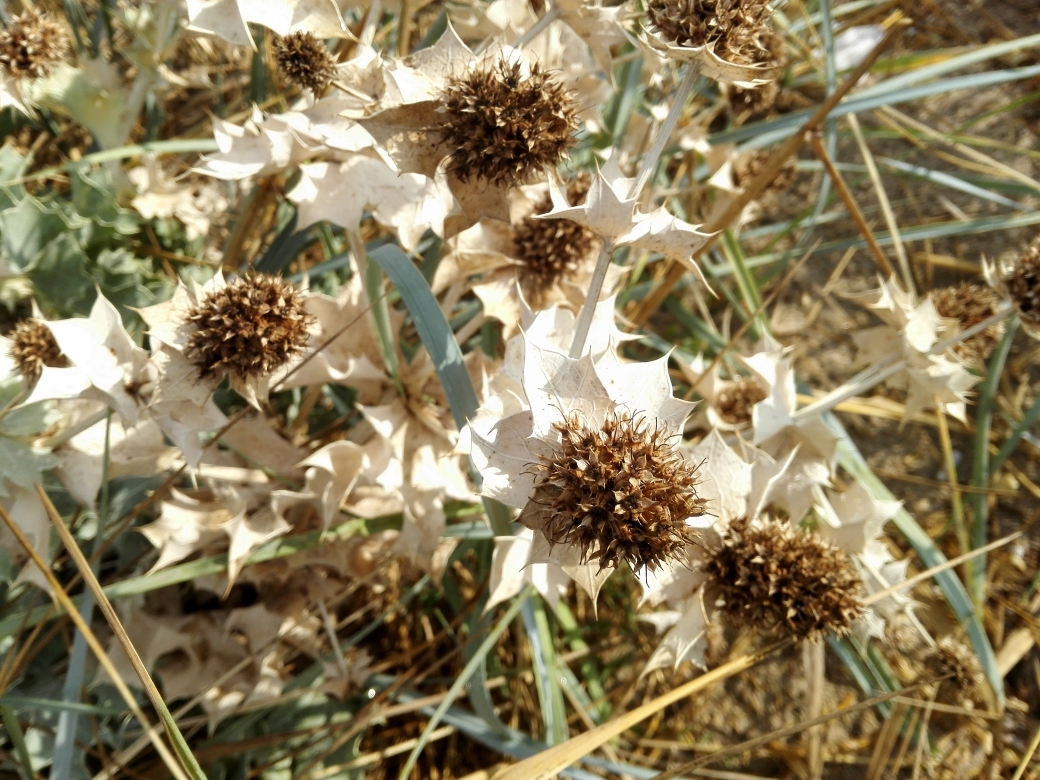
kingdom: Plantae
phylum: Tracheophyta
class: Magnoliopsida
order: Apiales
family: Apiaceae
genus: Eryngium
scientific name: Eryngium maritimum
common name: Sea-holly
